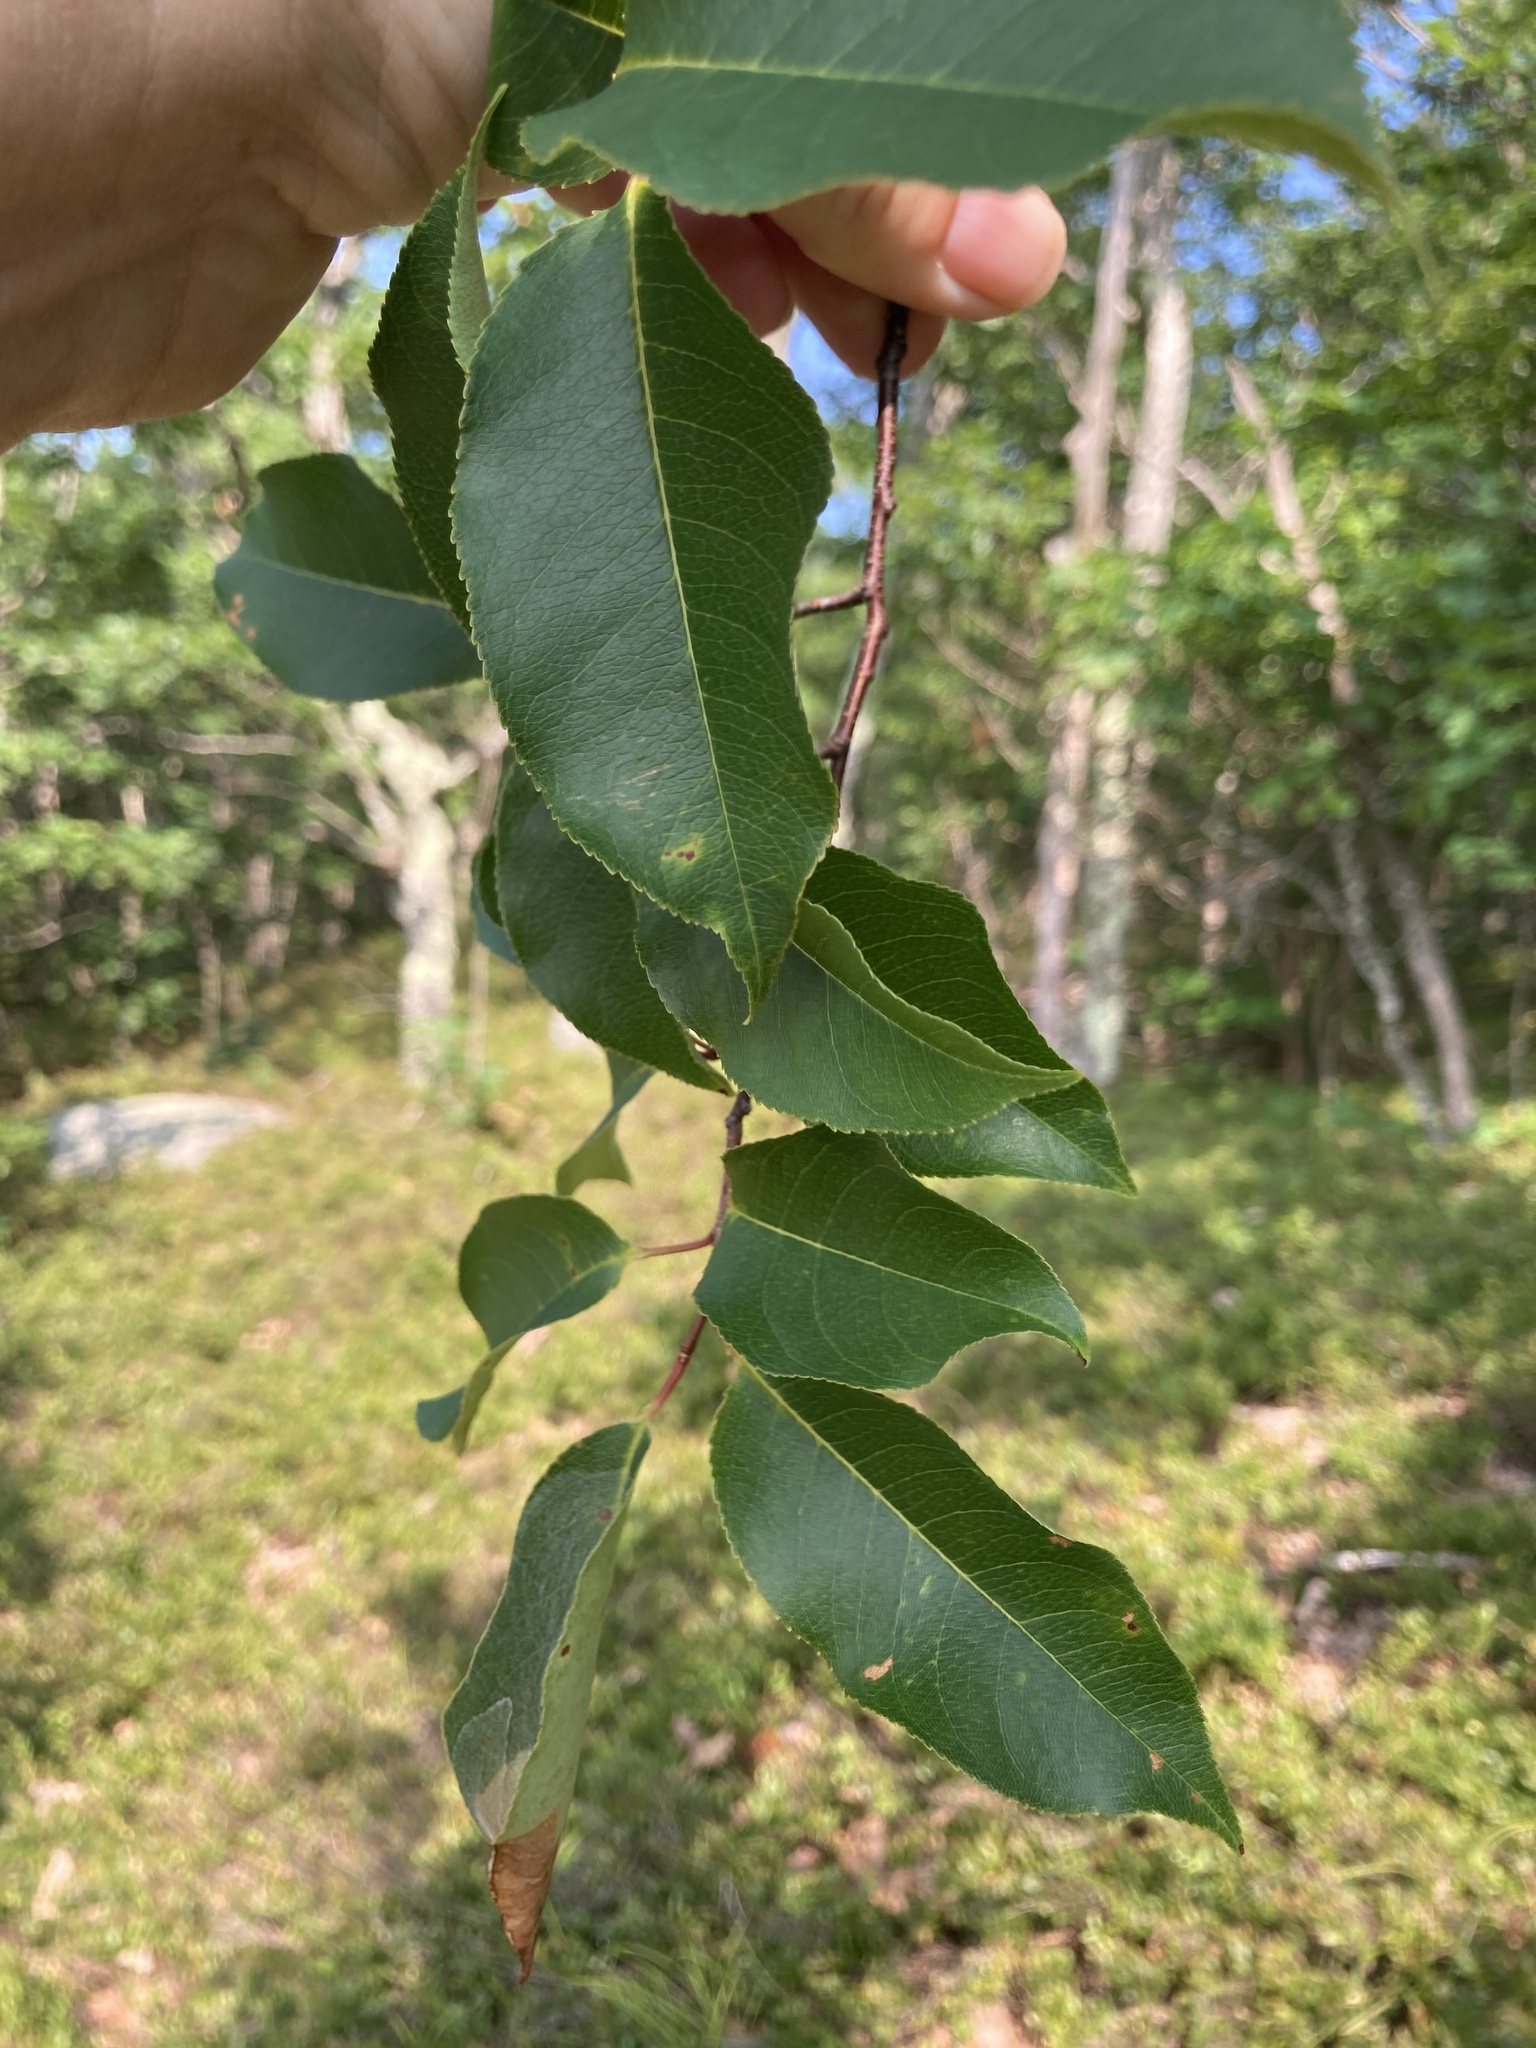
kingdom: Plantae
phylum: Tracheophyta
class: Magnoliopsida
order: Rosales
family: Rosaceae
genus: Prunus
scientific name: Prunus serotina
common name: Black cherry
